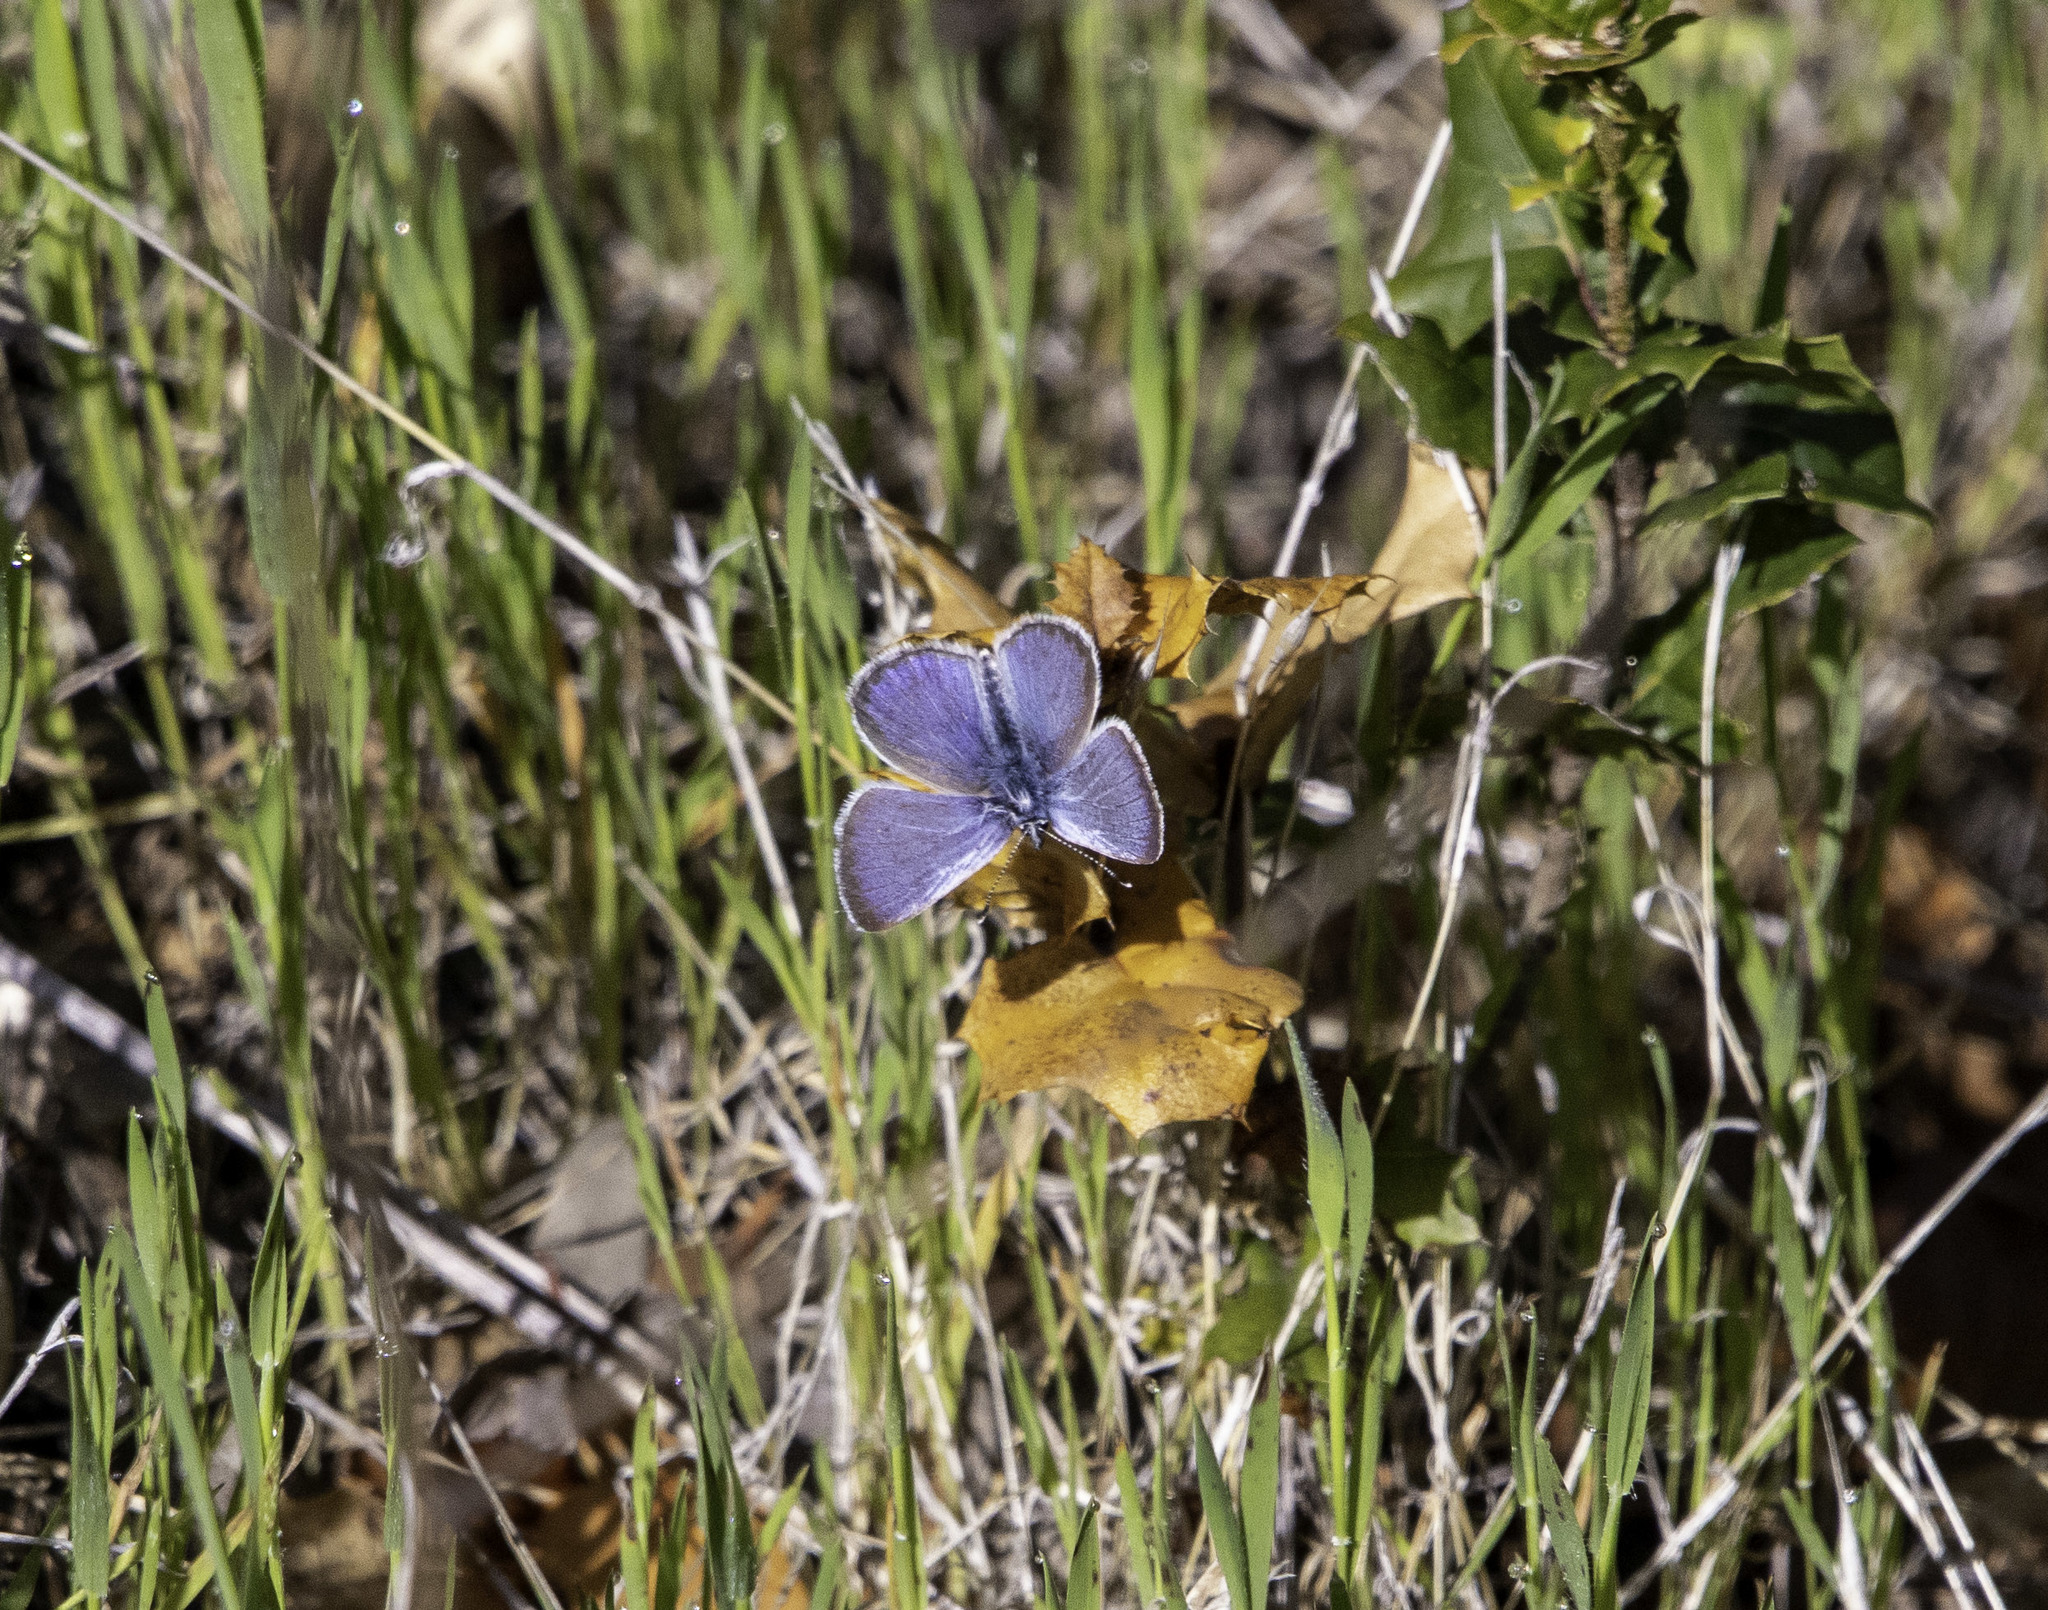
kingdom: Animalia
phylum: Arthropoda
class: Insecta
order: Lepidoptera
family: Lycaenidae
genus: Glaucopsyche
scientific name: Glaucopsyche lygdamus
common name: Silvery blue
